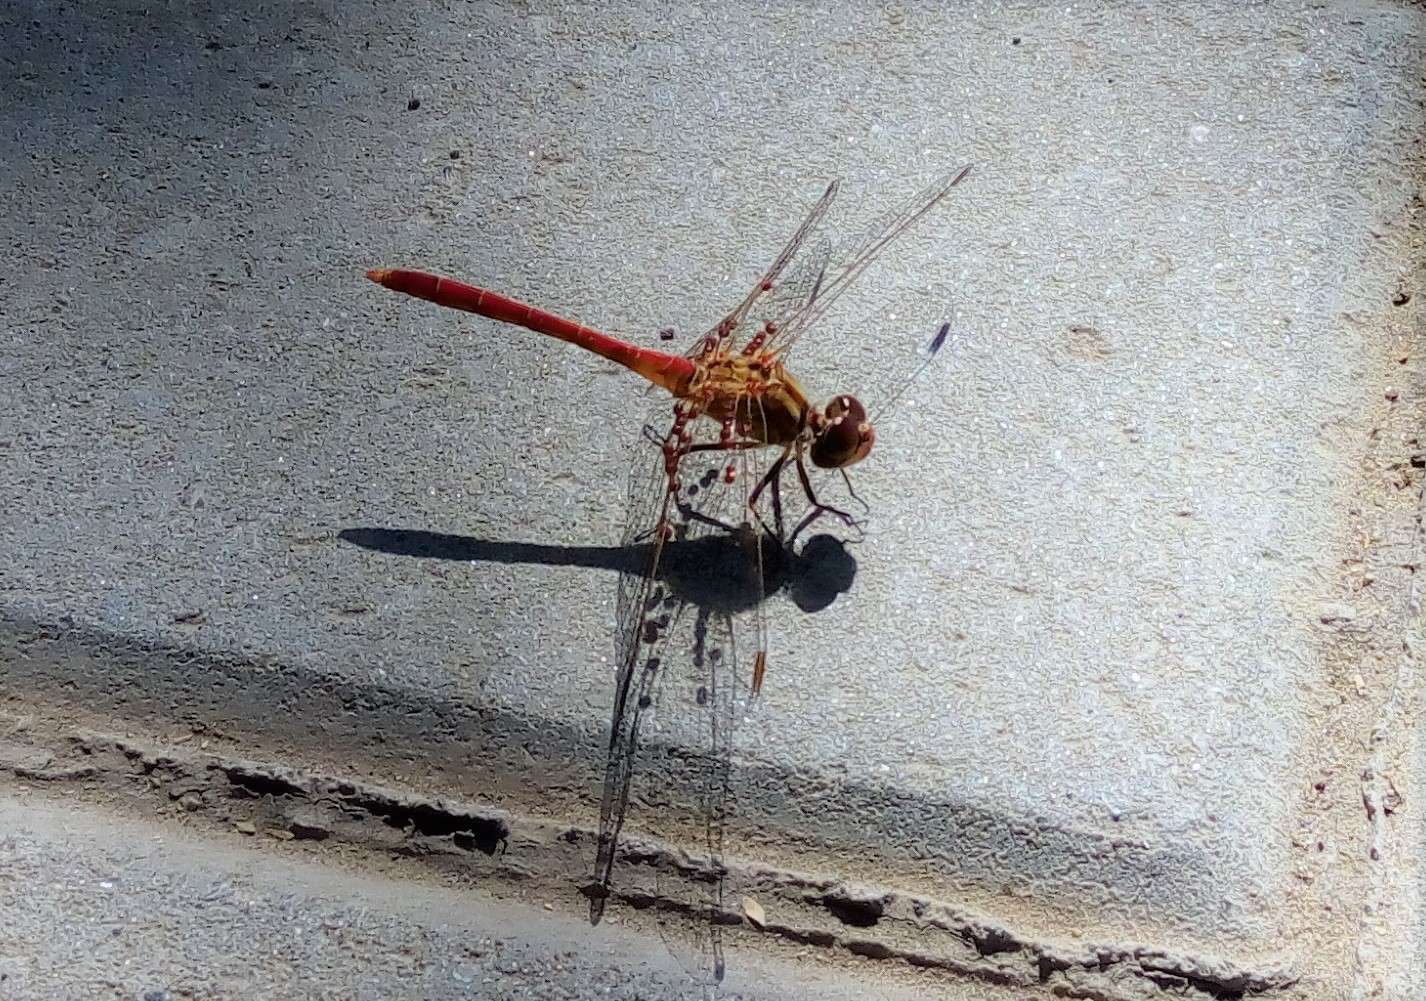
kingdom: Animalia
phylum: Arthropoda
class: Insecta
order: Odonata
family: Libellulidae
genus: Sympetrum
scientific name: Sympetrum meridionale
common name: Southern darter
